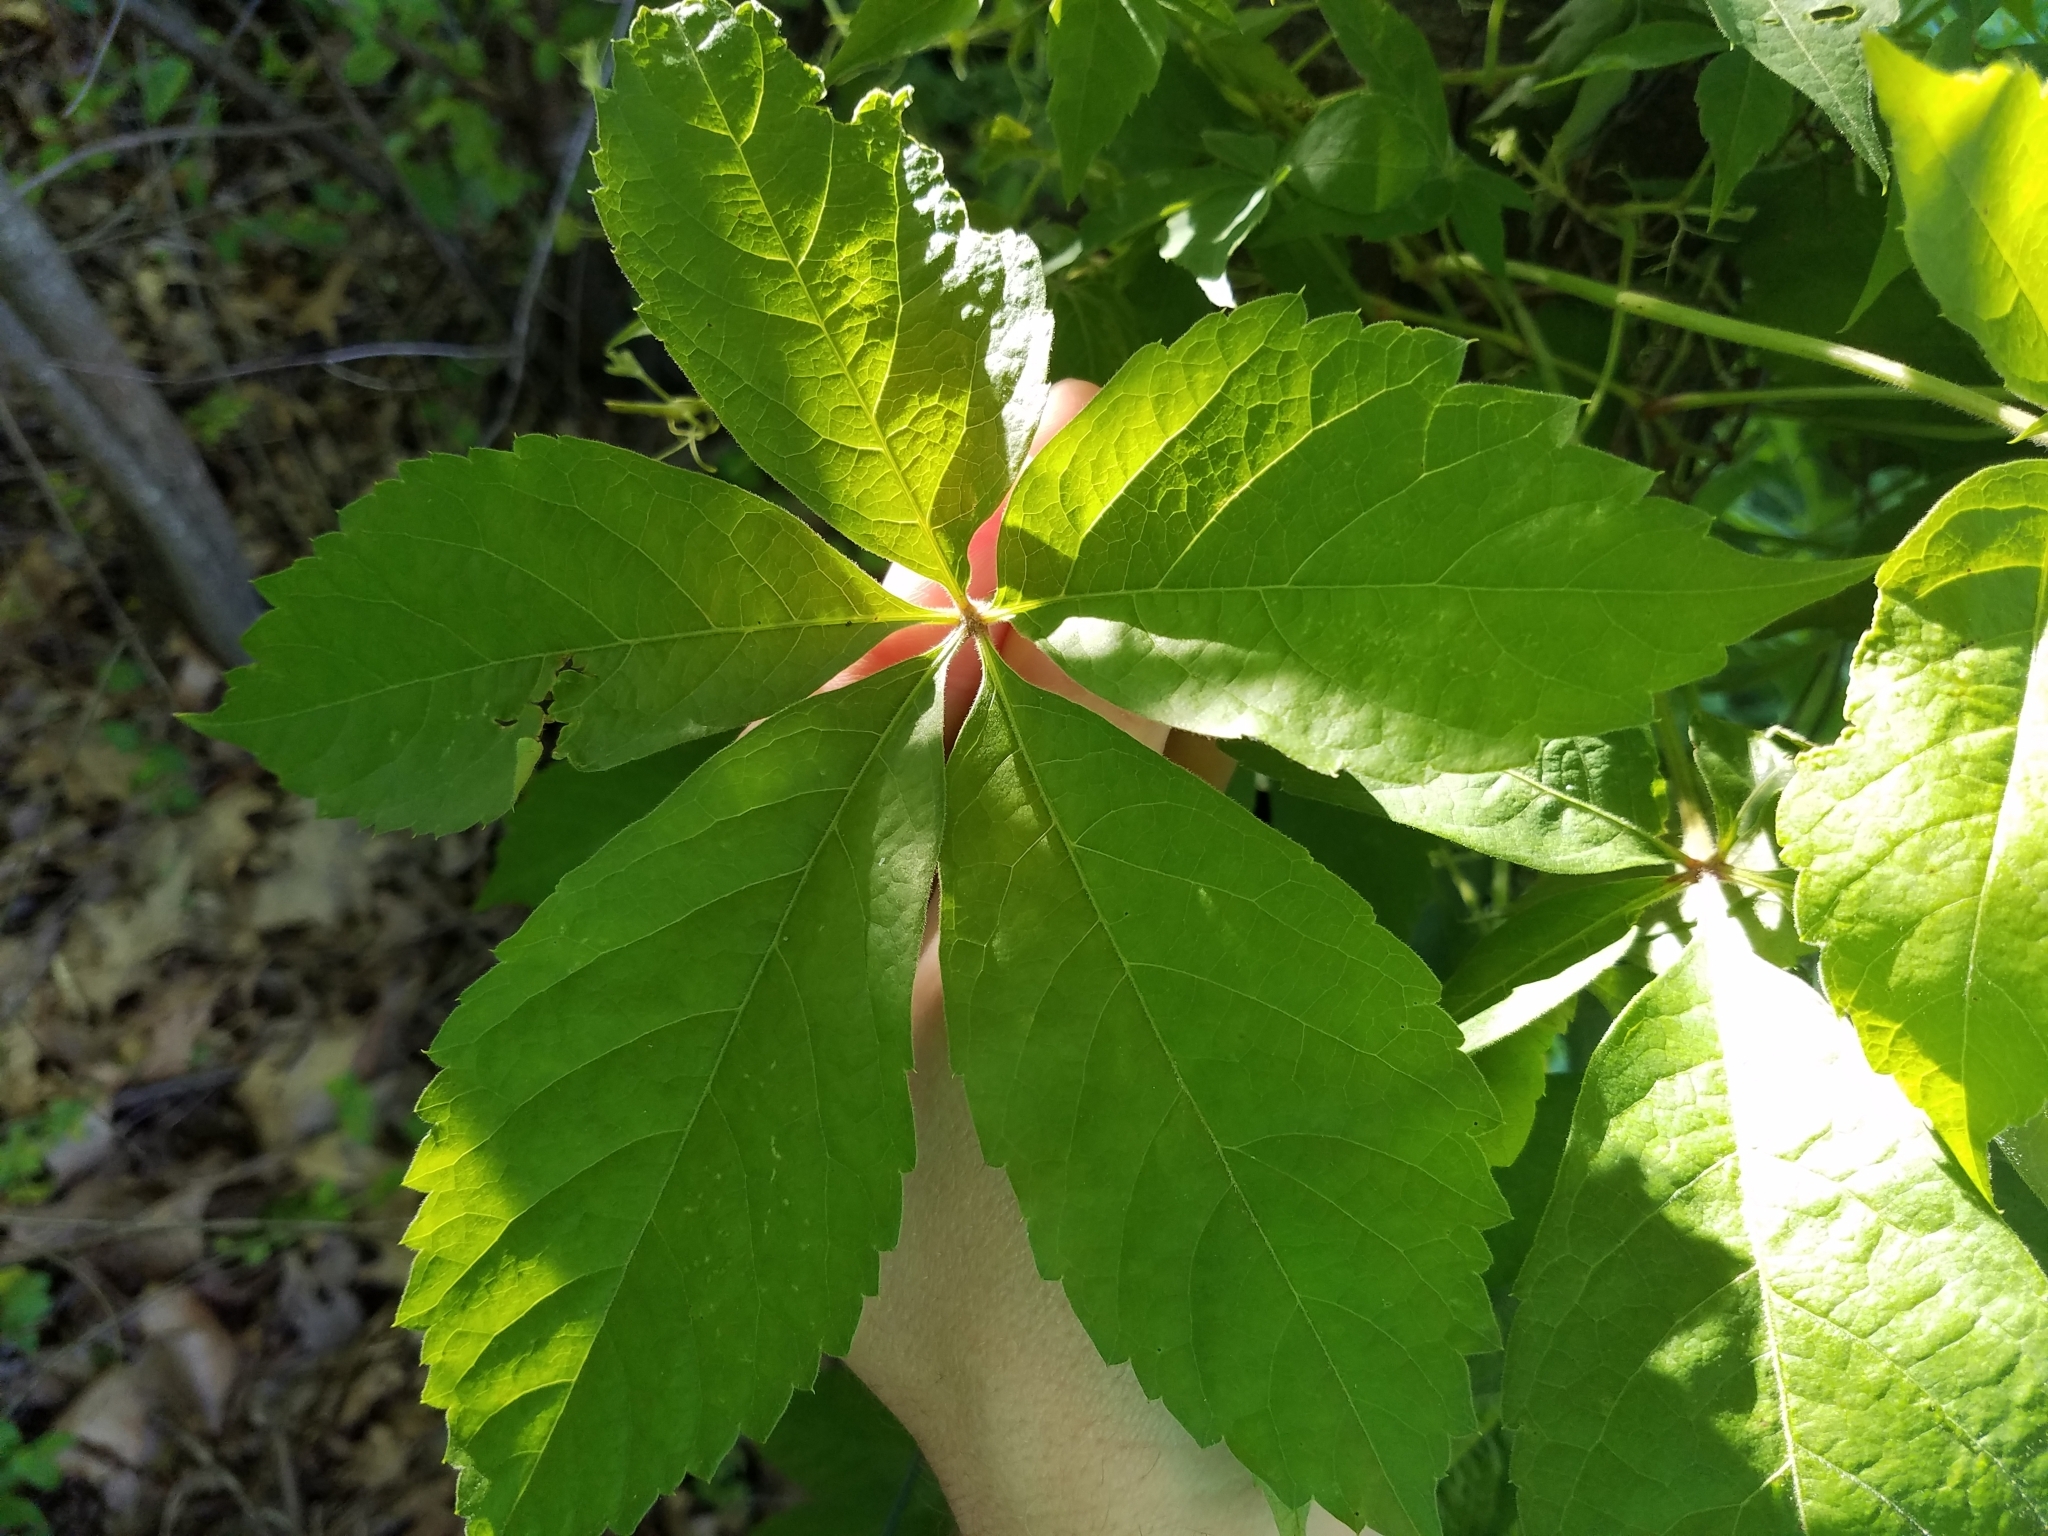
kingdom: Plantae
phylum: Tracheophyta
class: Magnoliopsida
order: Vitales
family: Vitaceae
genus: Parthenocissus
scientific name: Parthenocissus quinquefolia
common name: Virginia-creeper
